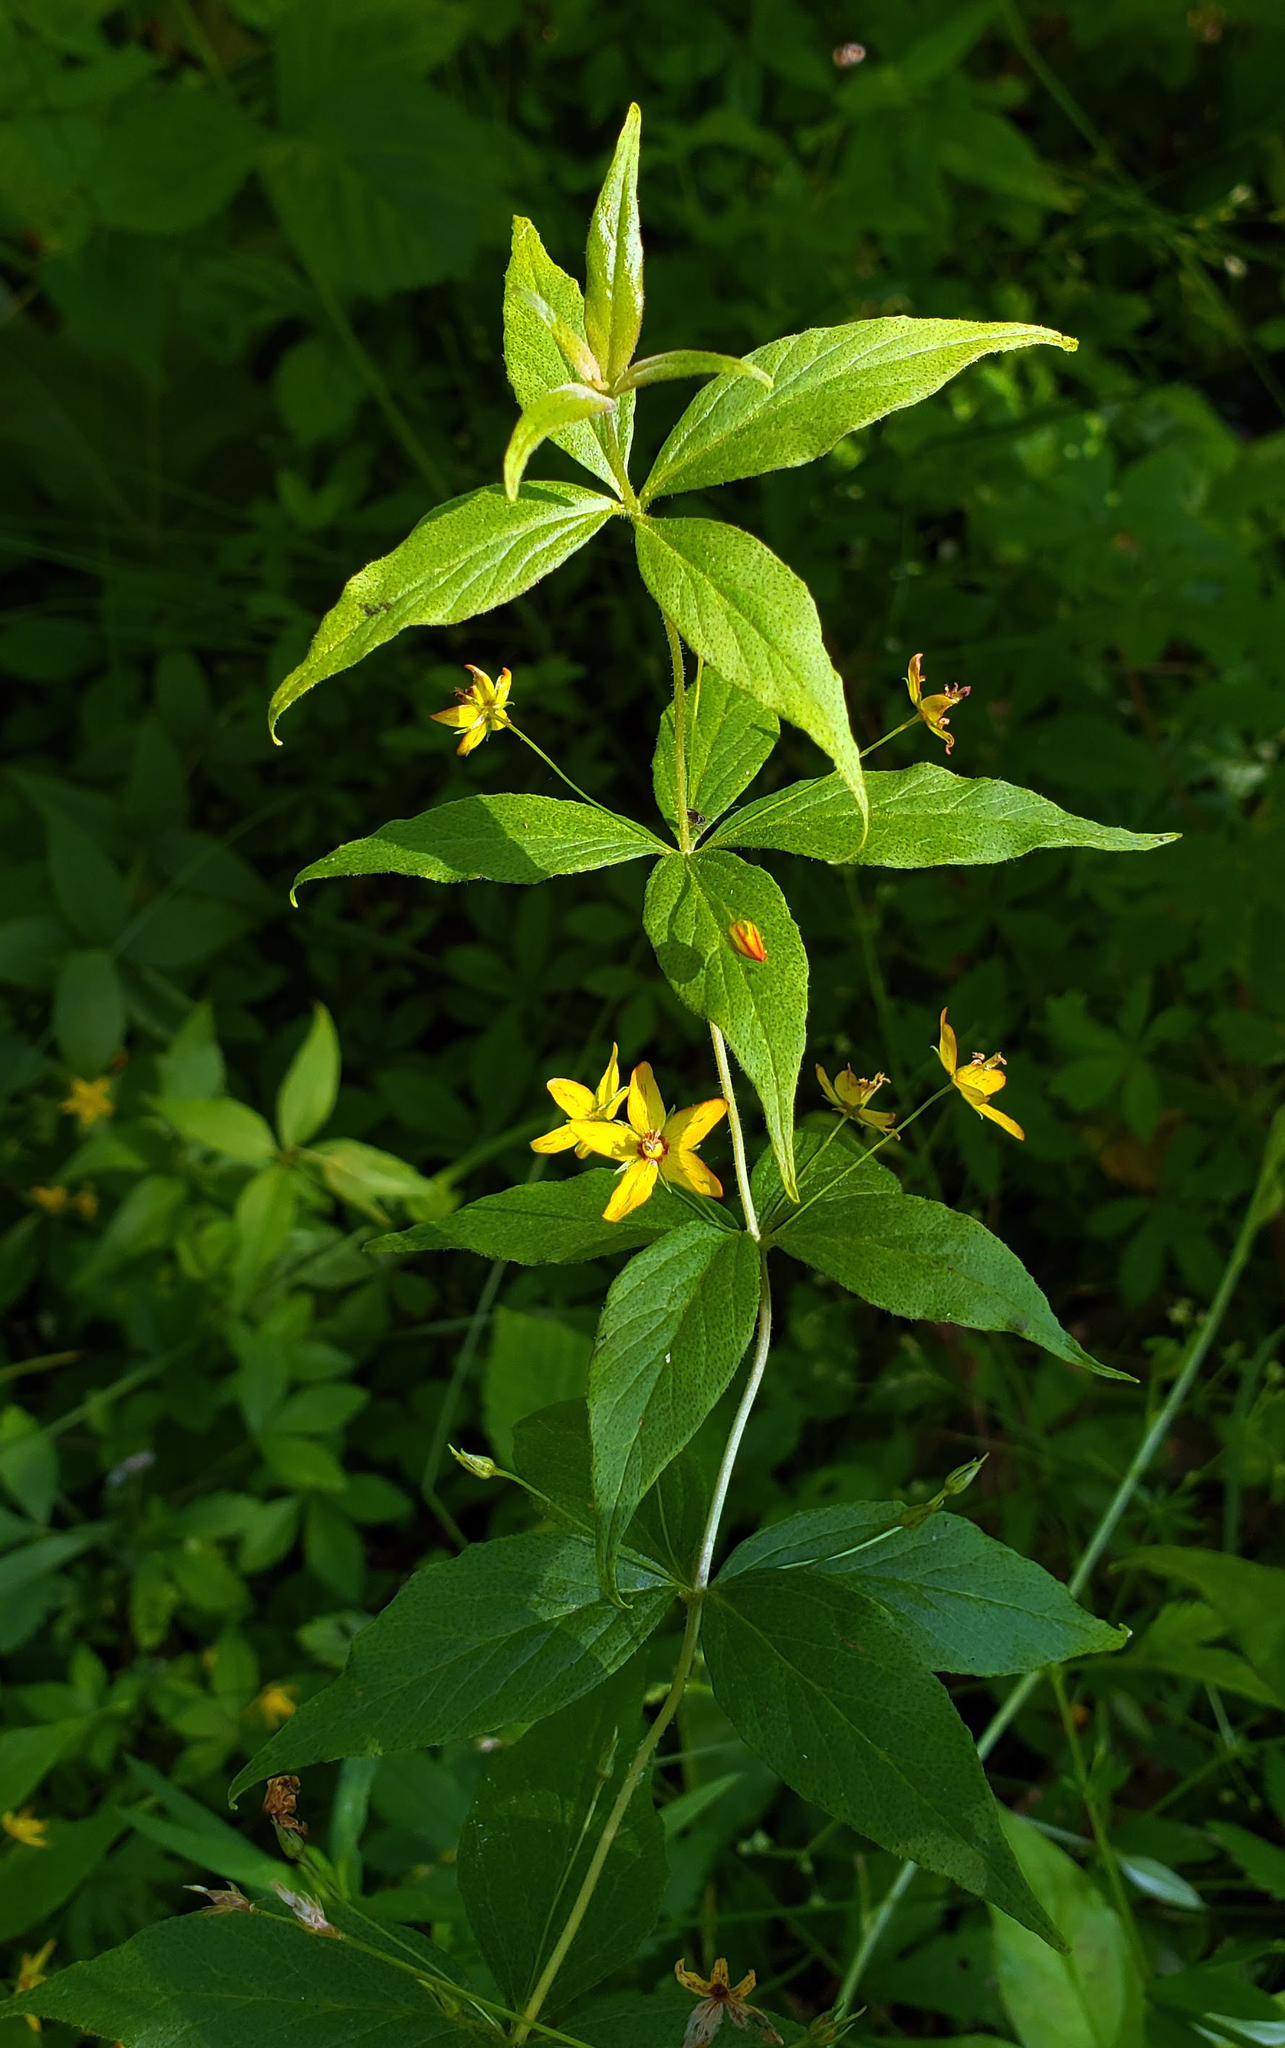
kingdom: Plantae
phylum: Tracheophyta
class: Magnoliopsida
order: Ericales
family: Primulaceae
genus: Lysimachia
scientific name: Lysimachia quadrifolia
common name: Whorled loosestrife
